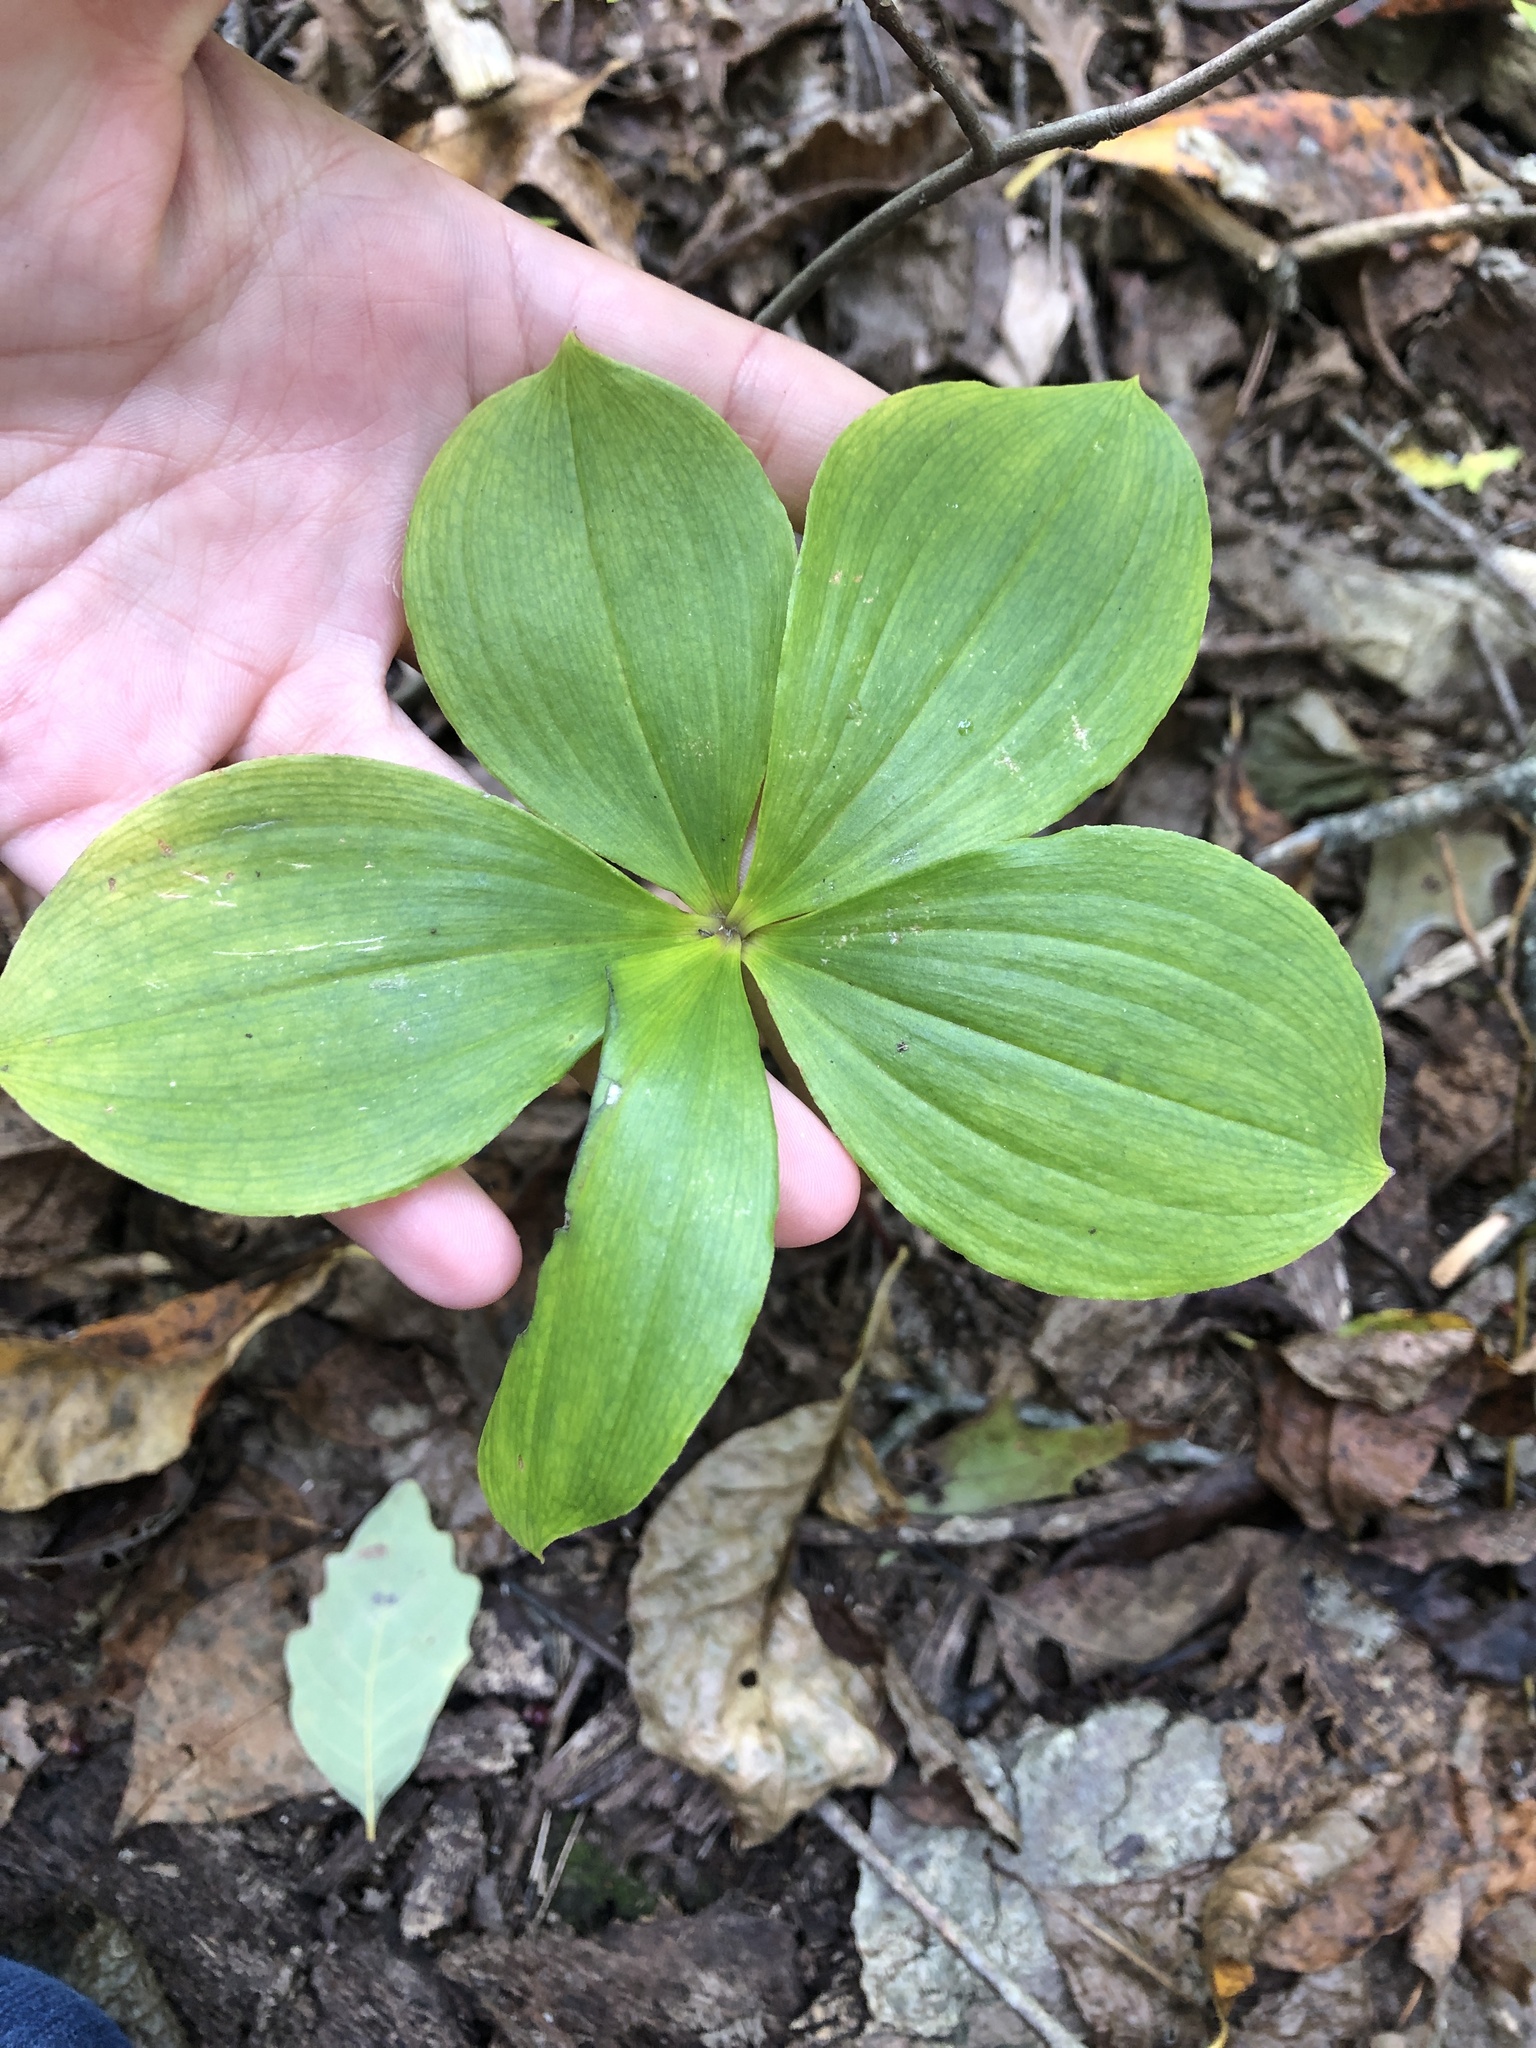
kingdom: Plantae
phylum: Tracheophyta
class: Liliopsida
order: Asparagales
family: Orchidaceae
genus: Isotria
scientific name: Isotria verticillata
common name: Large whorled pogonia
